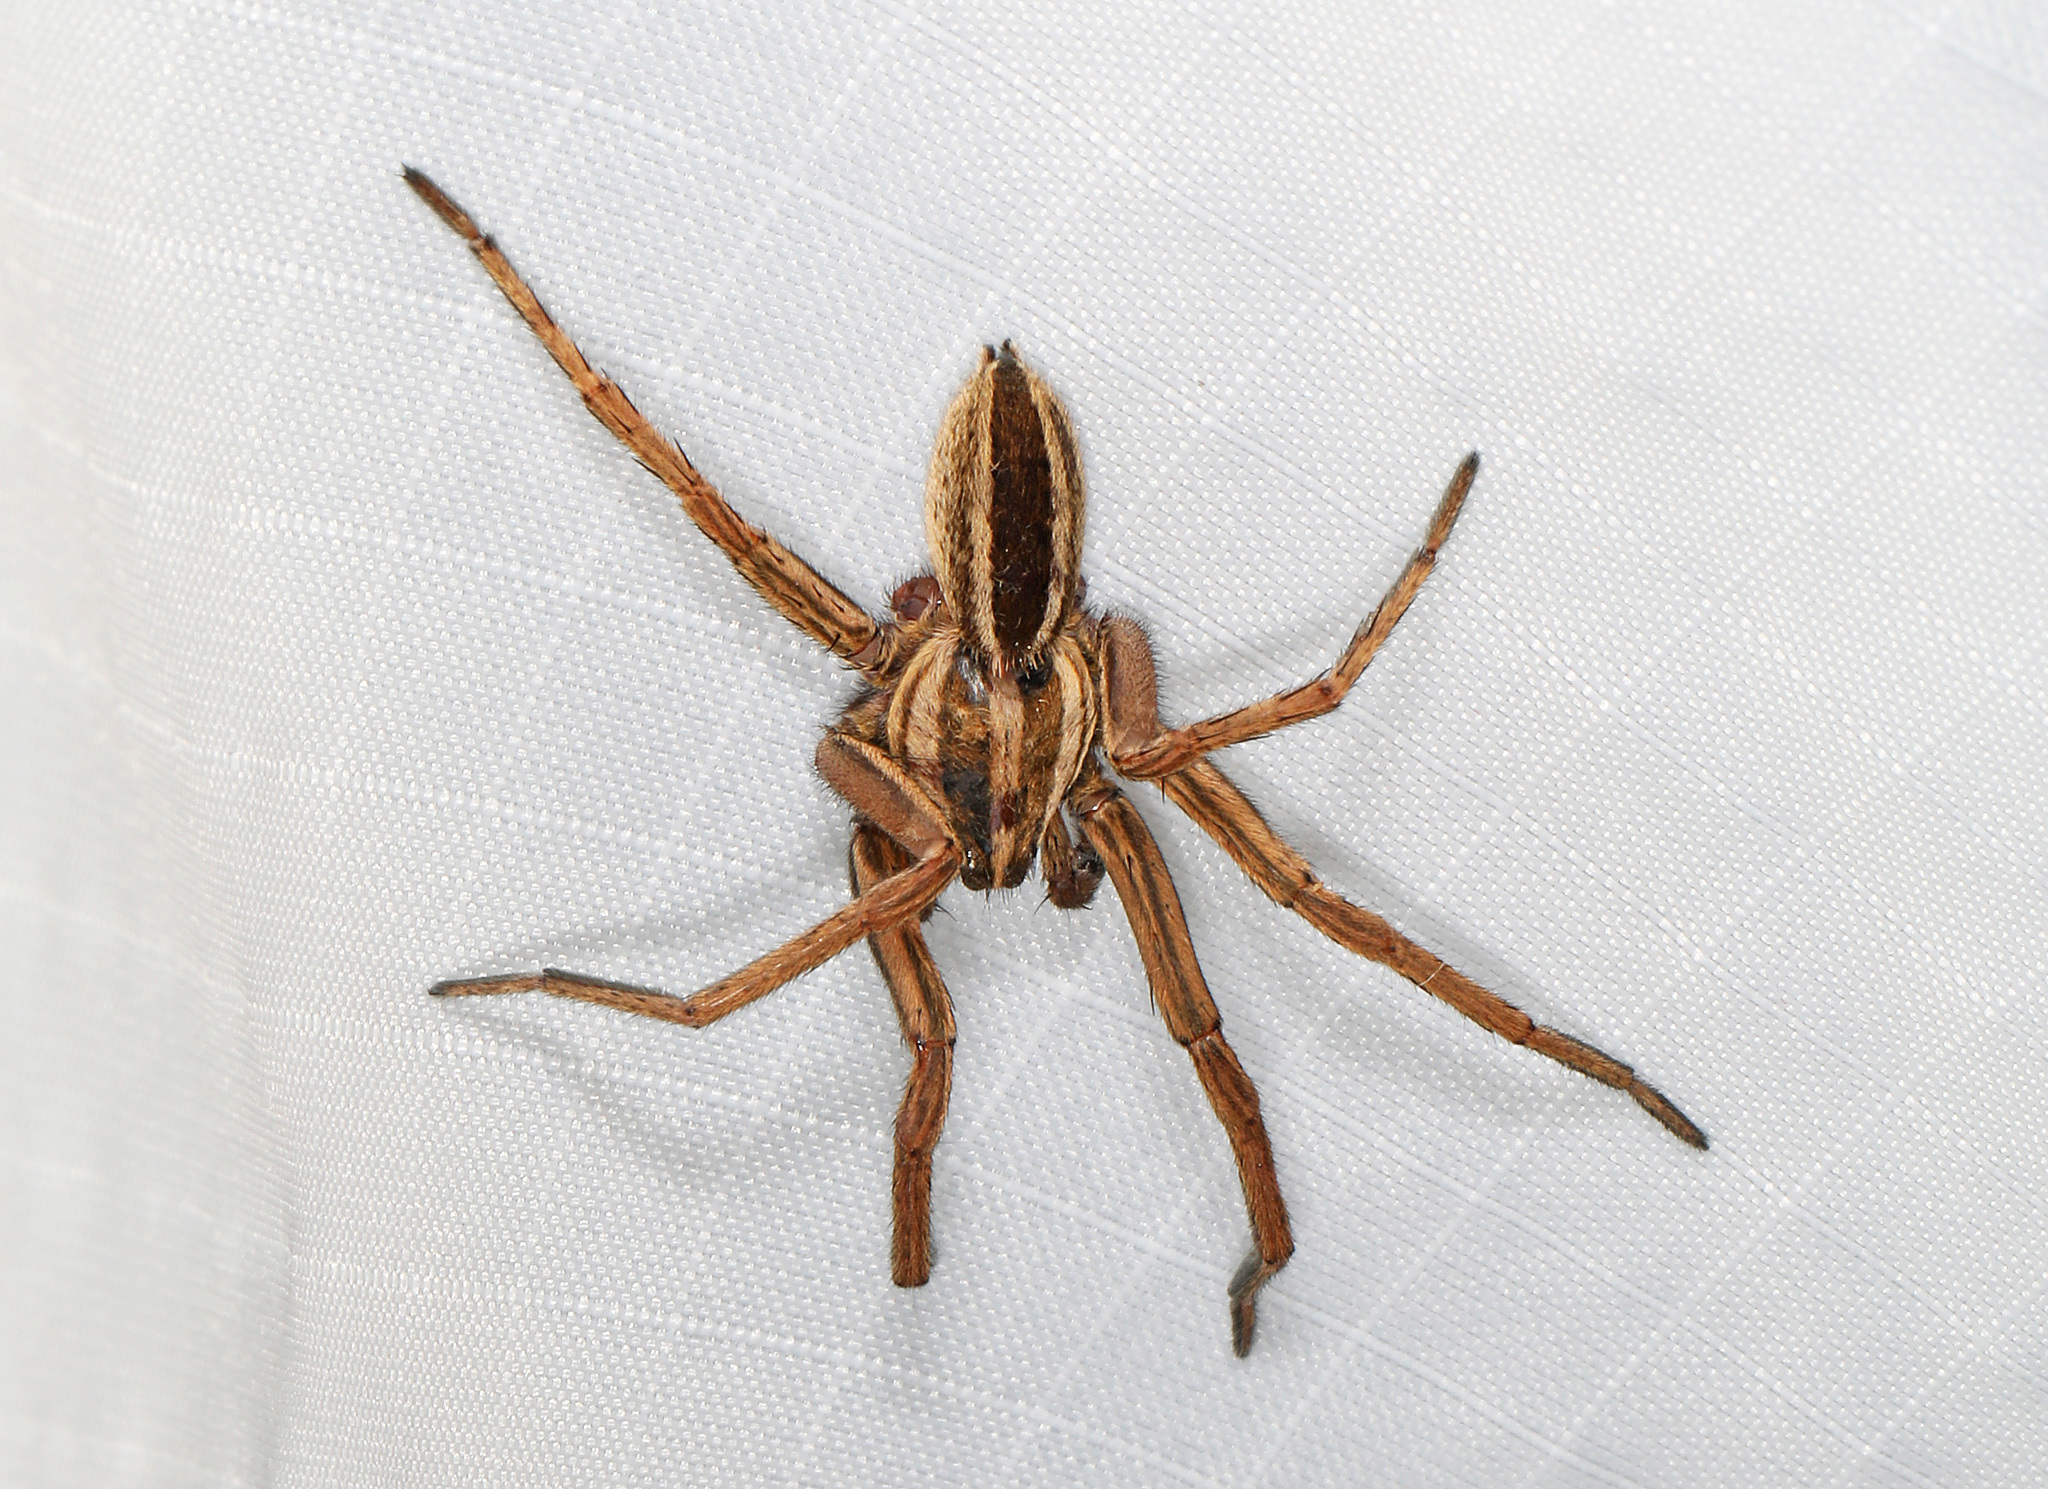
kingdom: Animalia
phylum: Arthropoda
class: Arachnida
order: Araneae
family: Lycosidae
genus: Rabidosa
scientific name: Rabidosa punctulata
